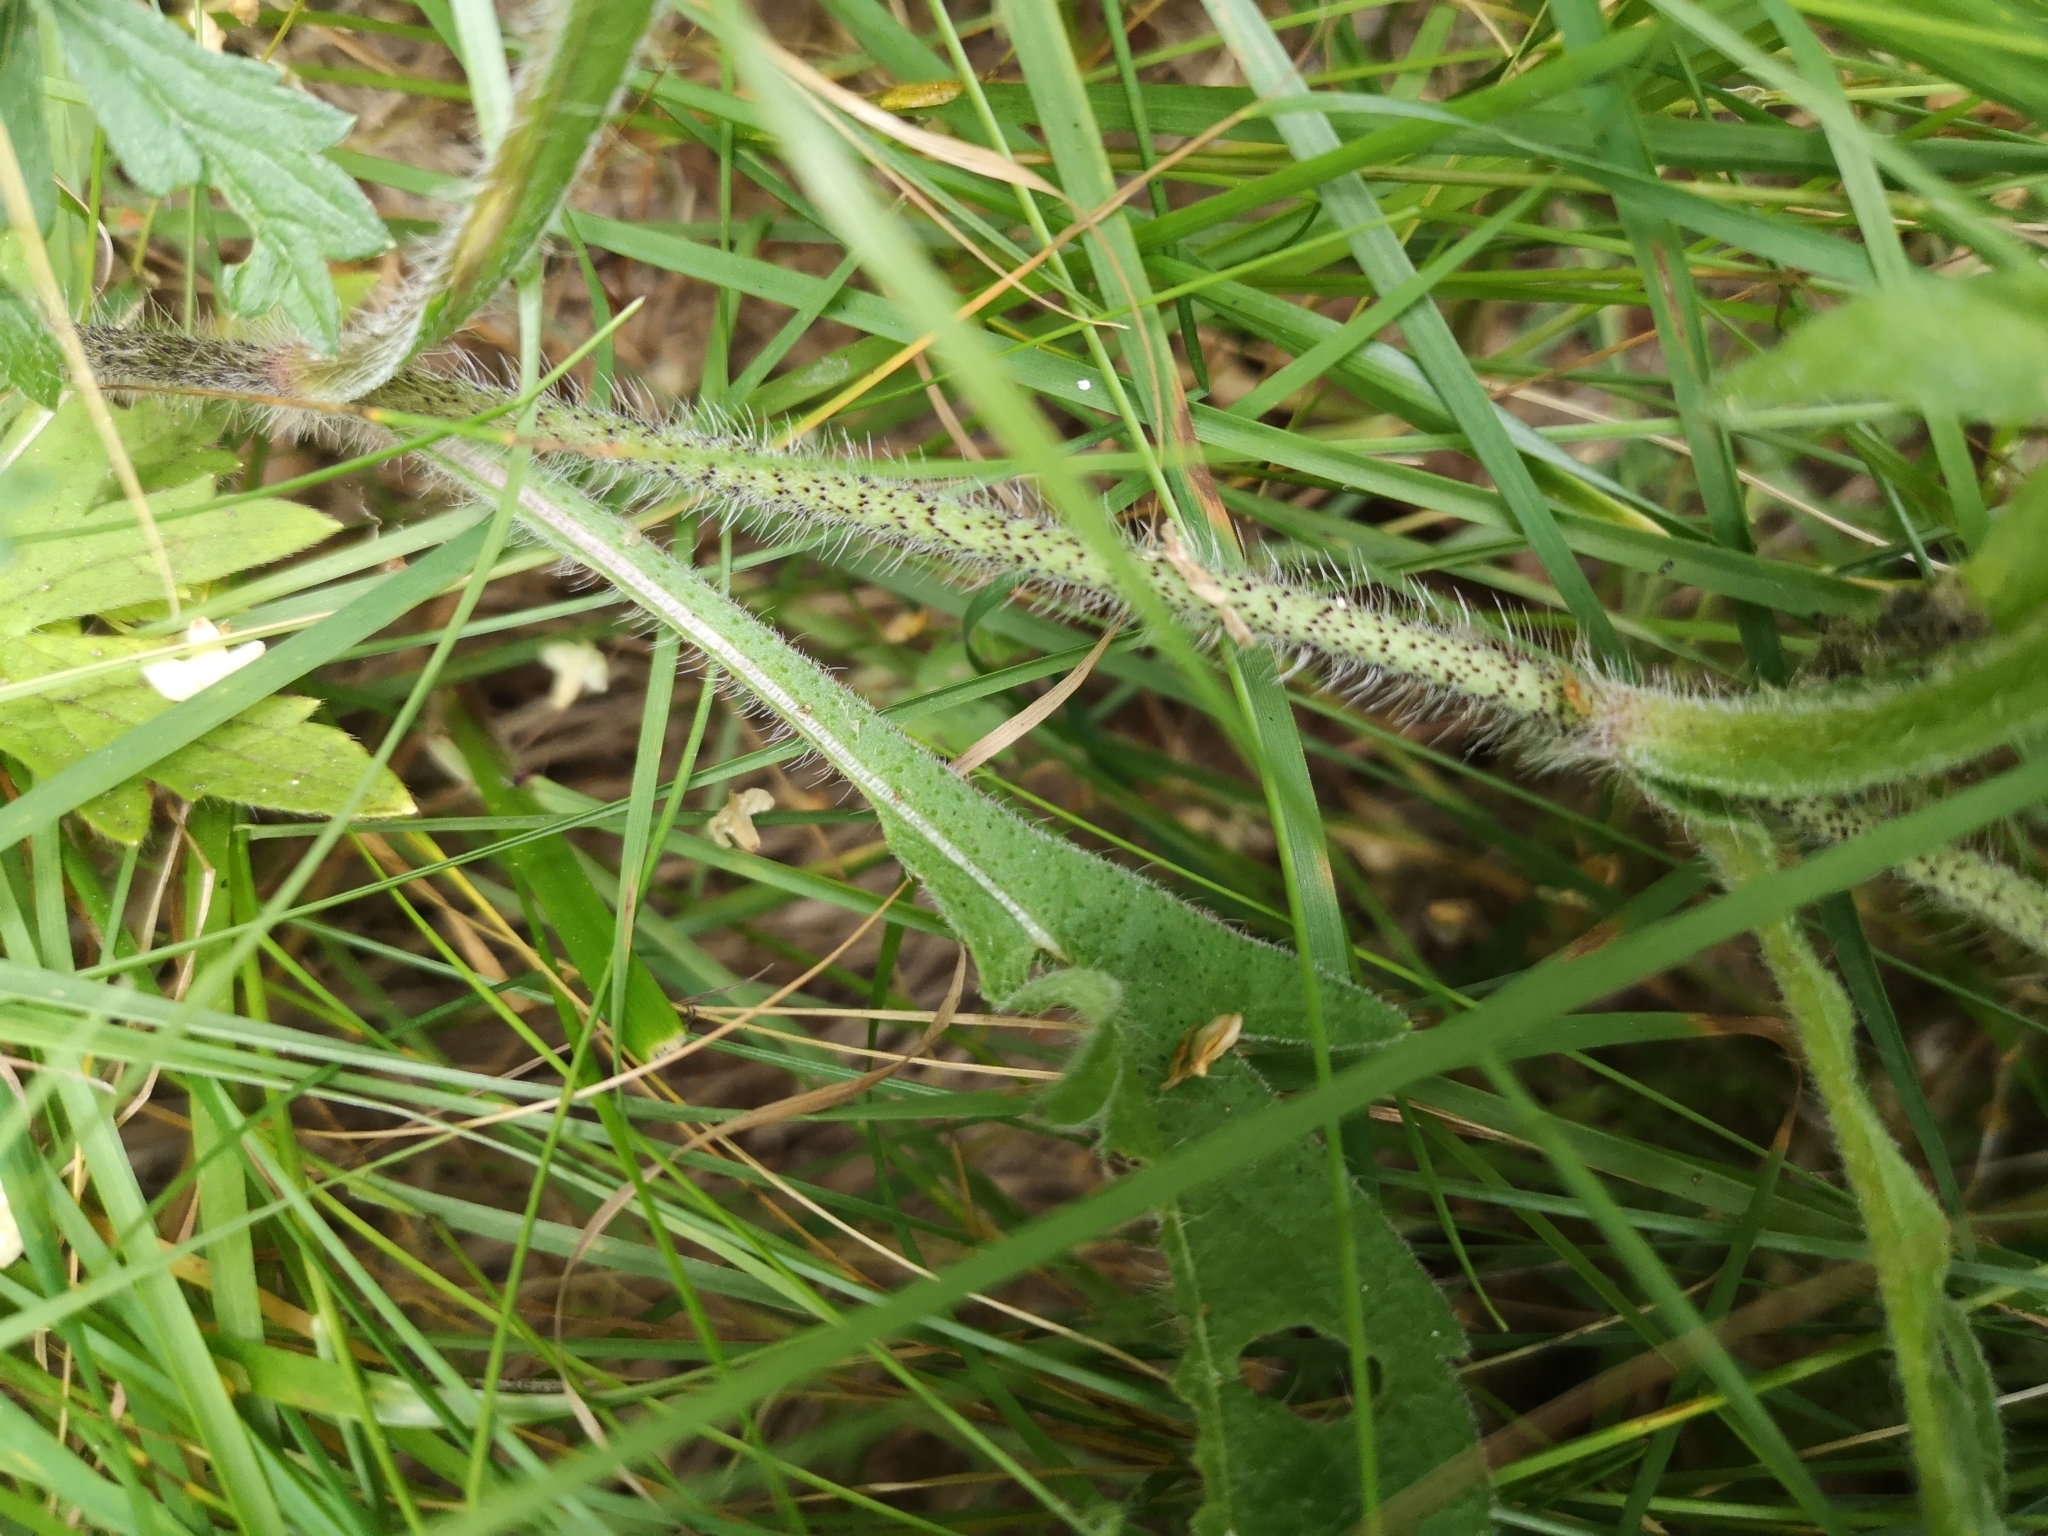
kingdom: Plantae
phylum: Tracheophyta
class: Magnoliopsida
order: Dipsacales
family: Caprifoliaceae
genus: Knautia
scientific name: Knautia arvensis
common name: Field scabiosa
